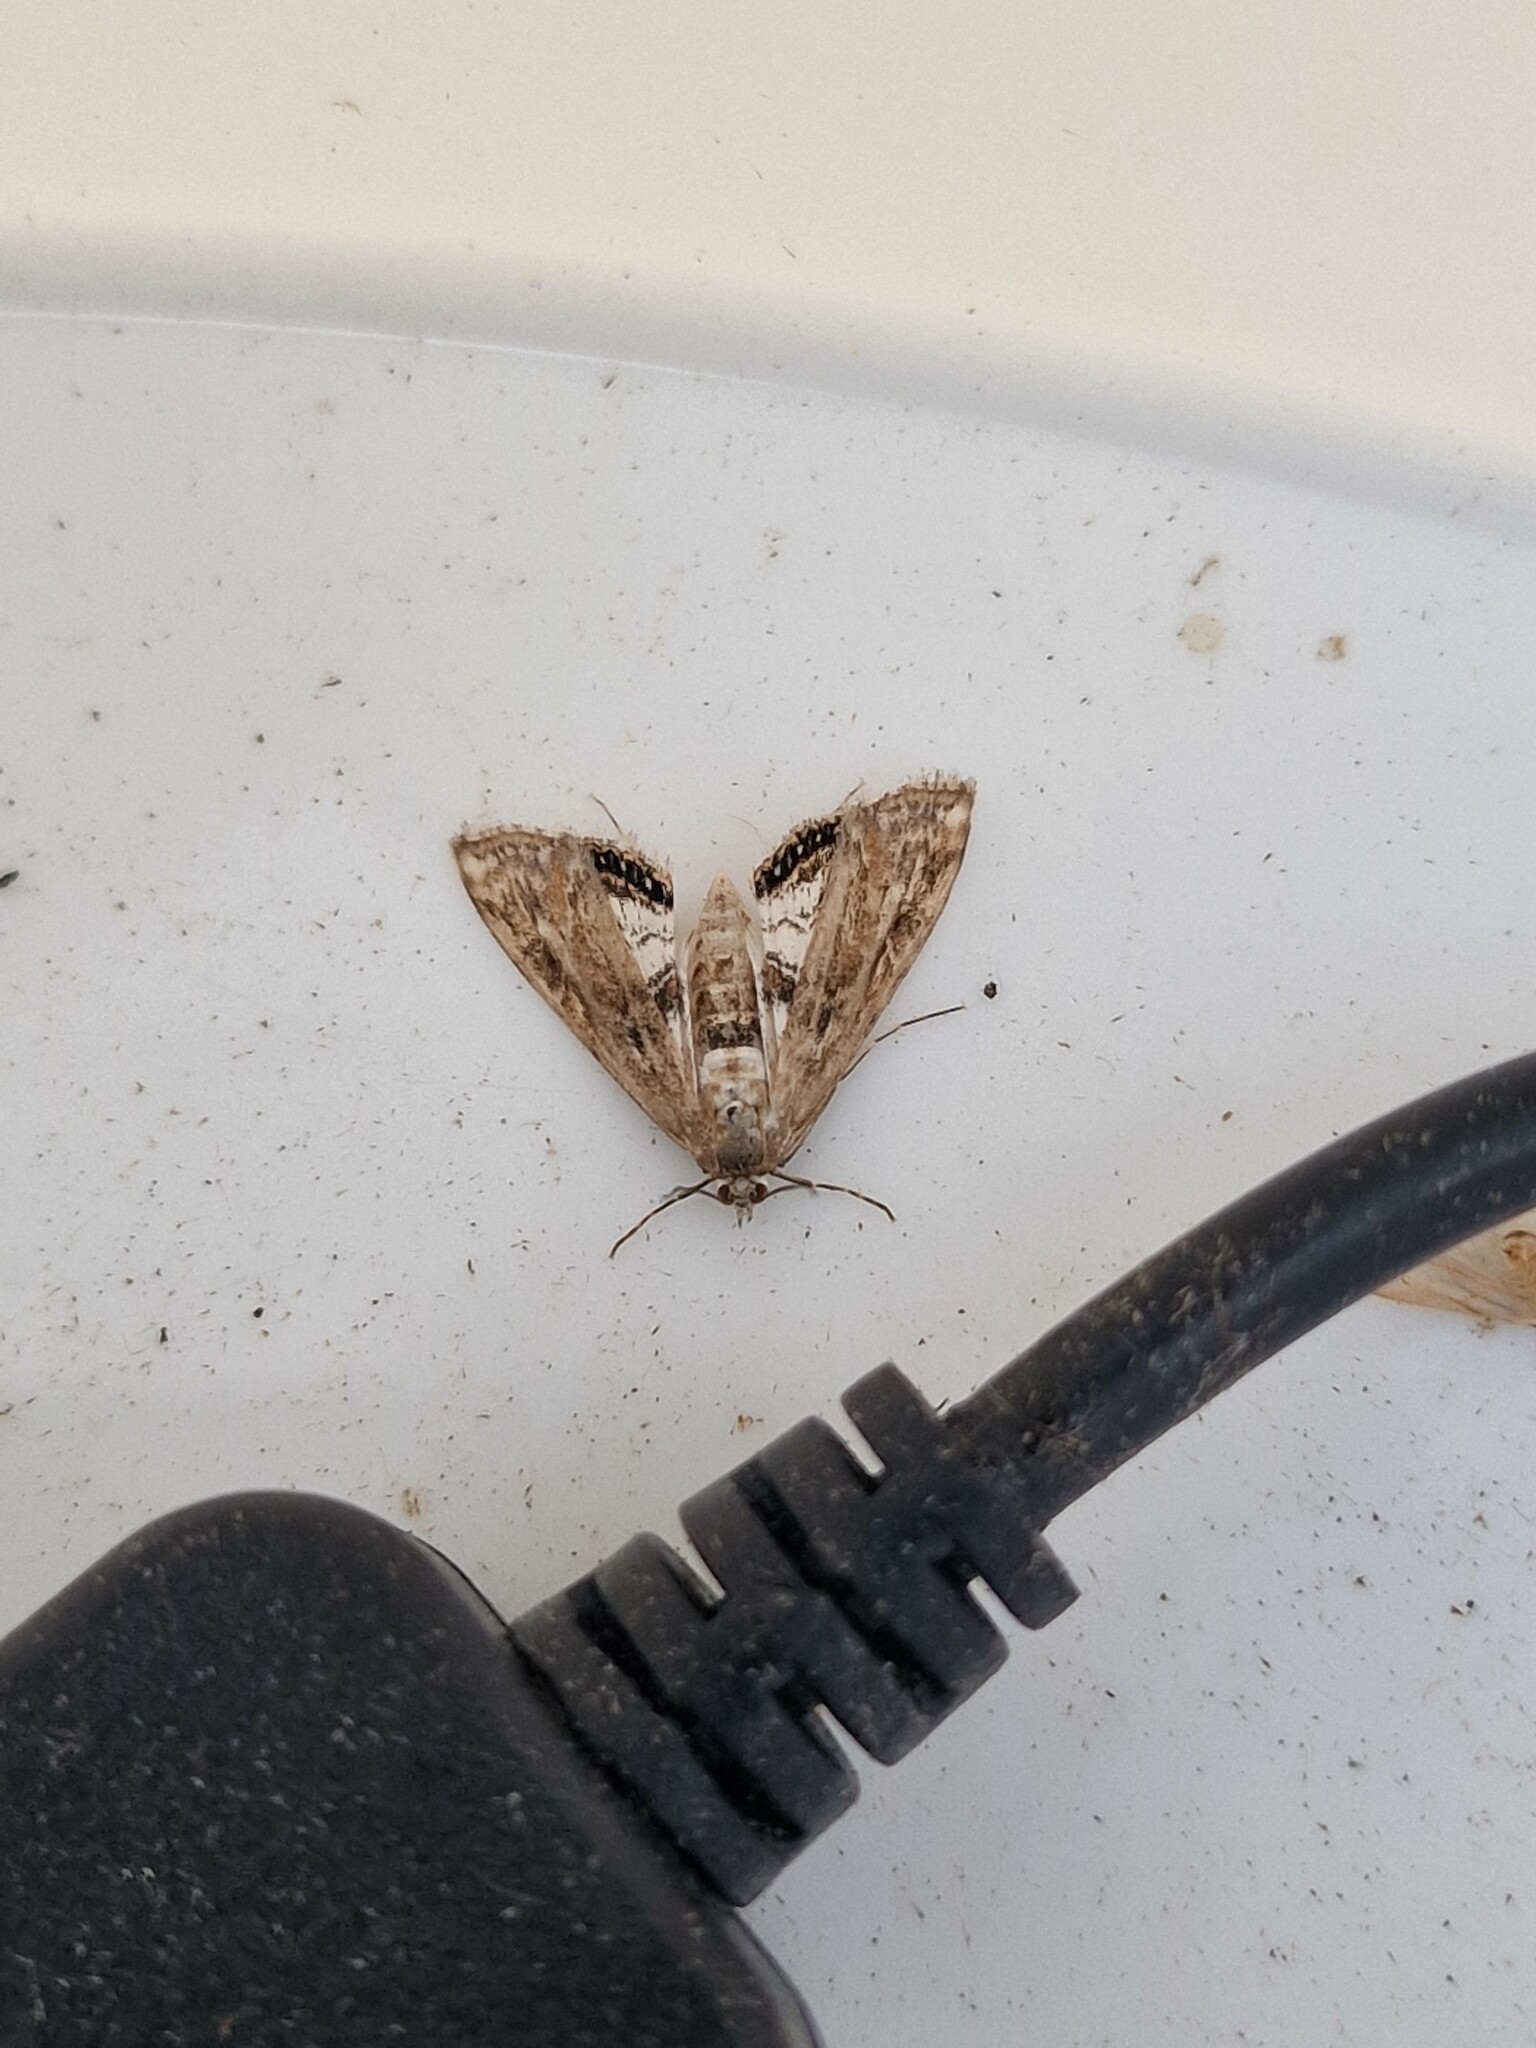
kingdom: Animalia
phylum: Arthropoda
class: Insecta
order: Lepidoptera
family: Crambidae
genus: Cataclysta
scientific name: Cataclysta lemnata
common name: Small china-mark
